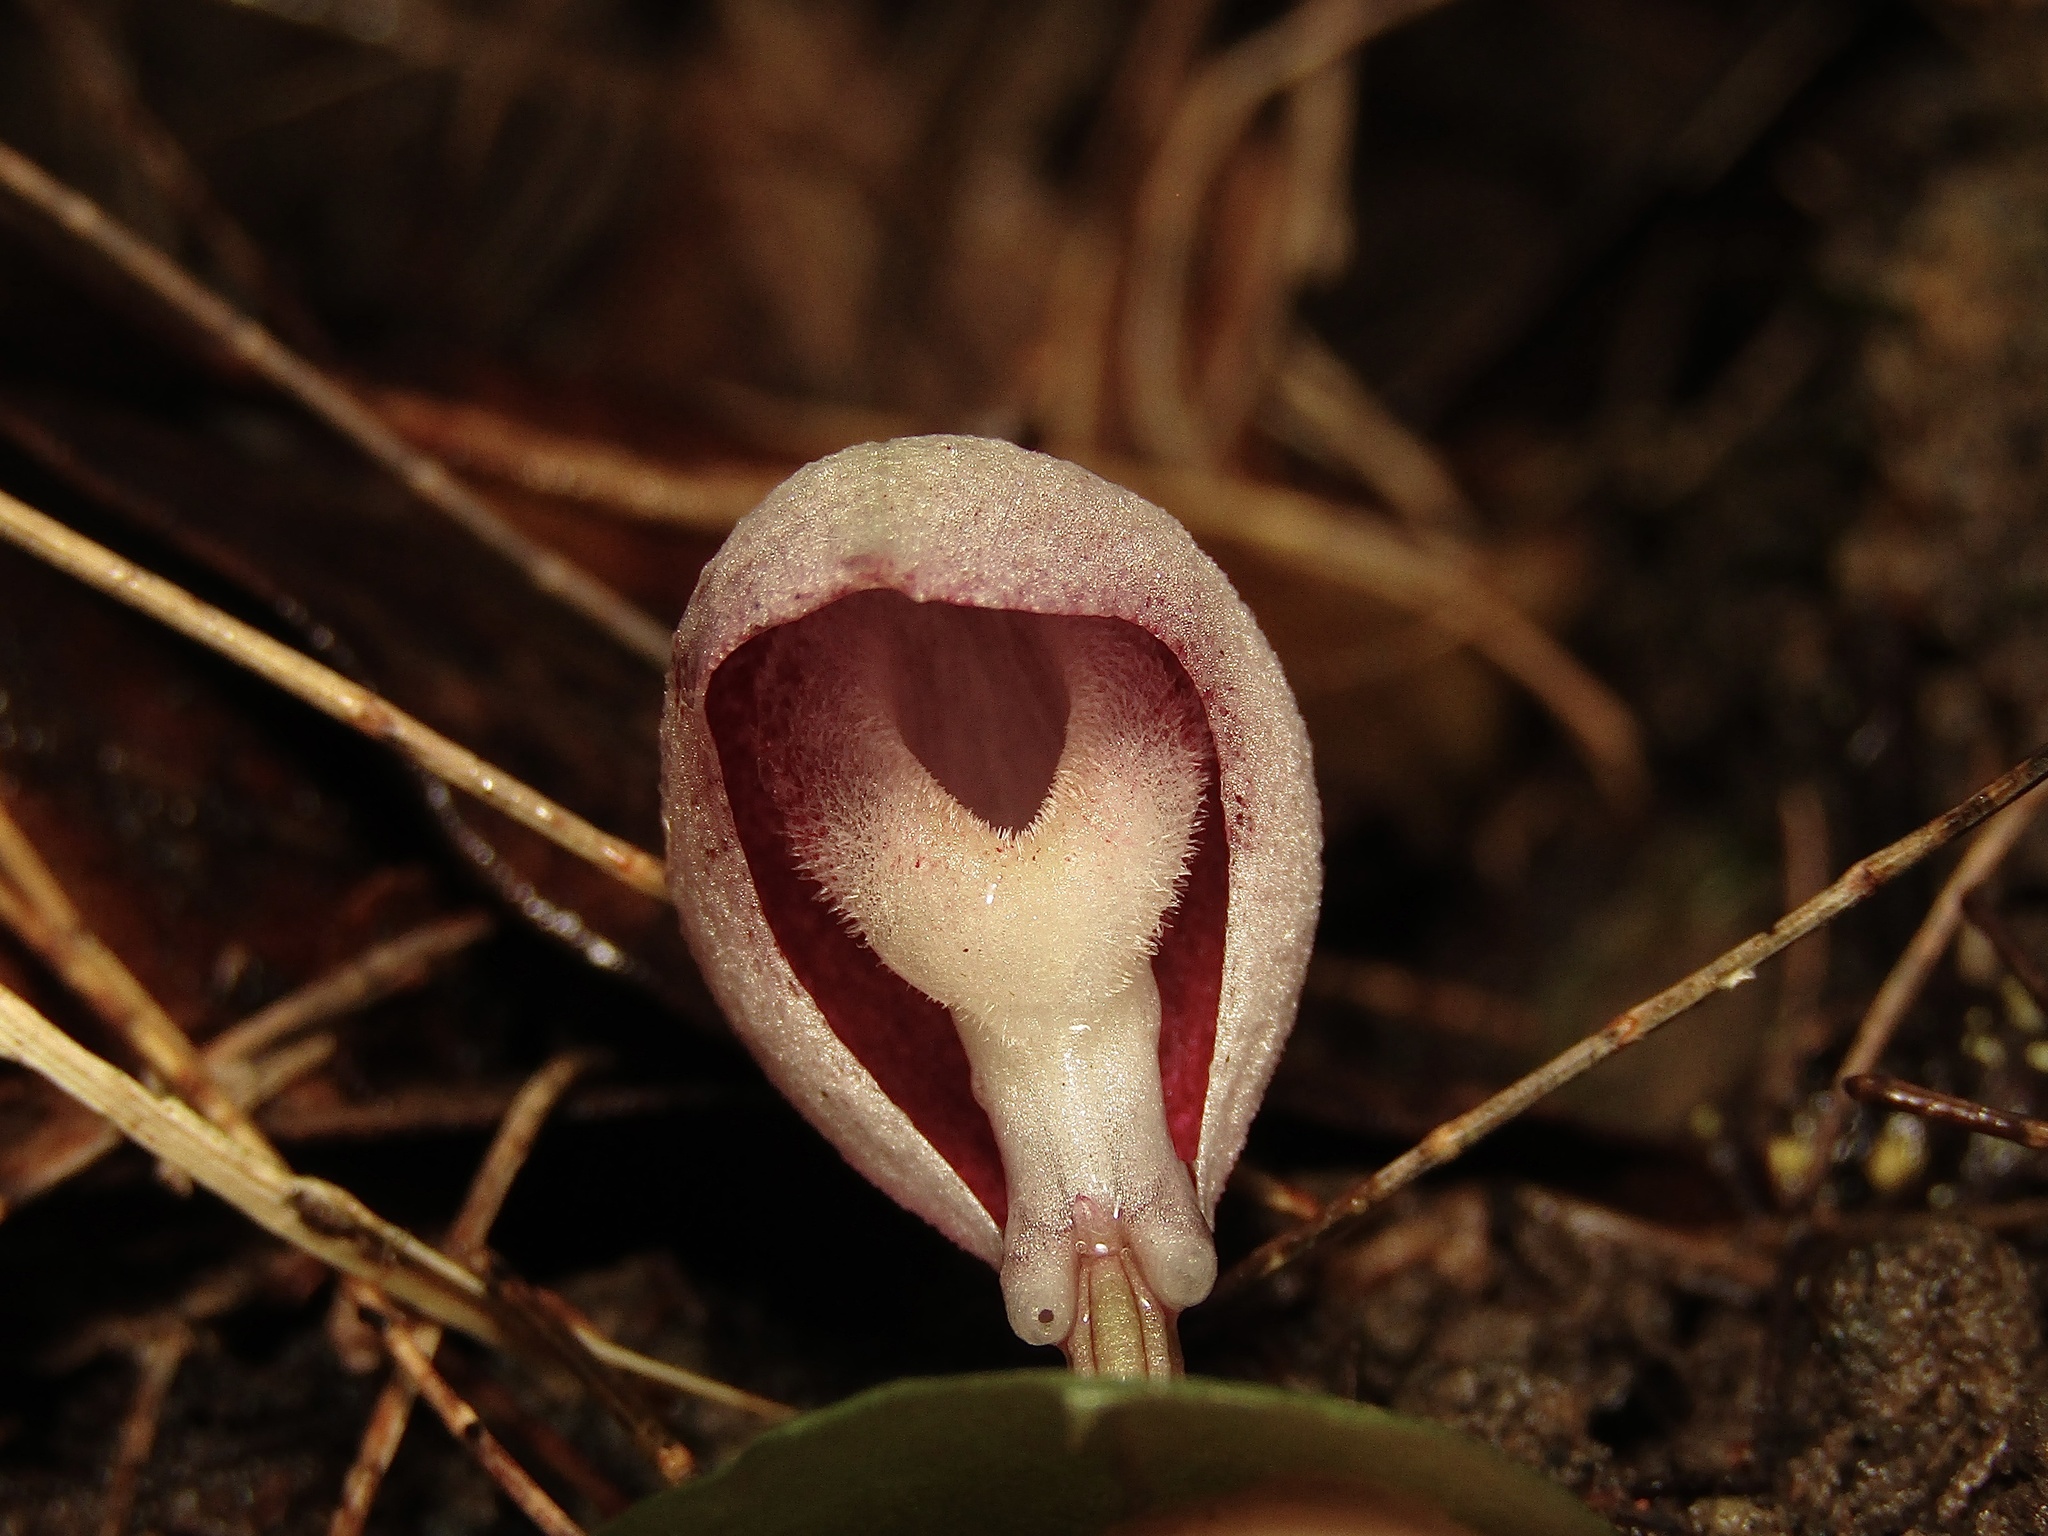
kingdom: Plantae
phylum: Tracheophyta
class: Liliopsida
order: Asparagales
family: Orchidaceae
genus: Corybas
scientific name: Corybas barbarae
